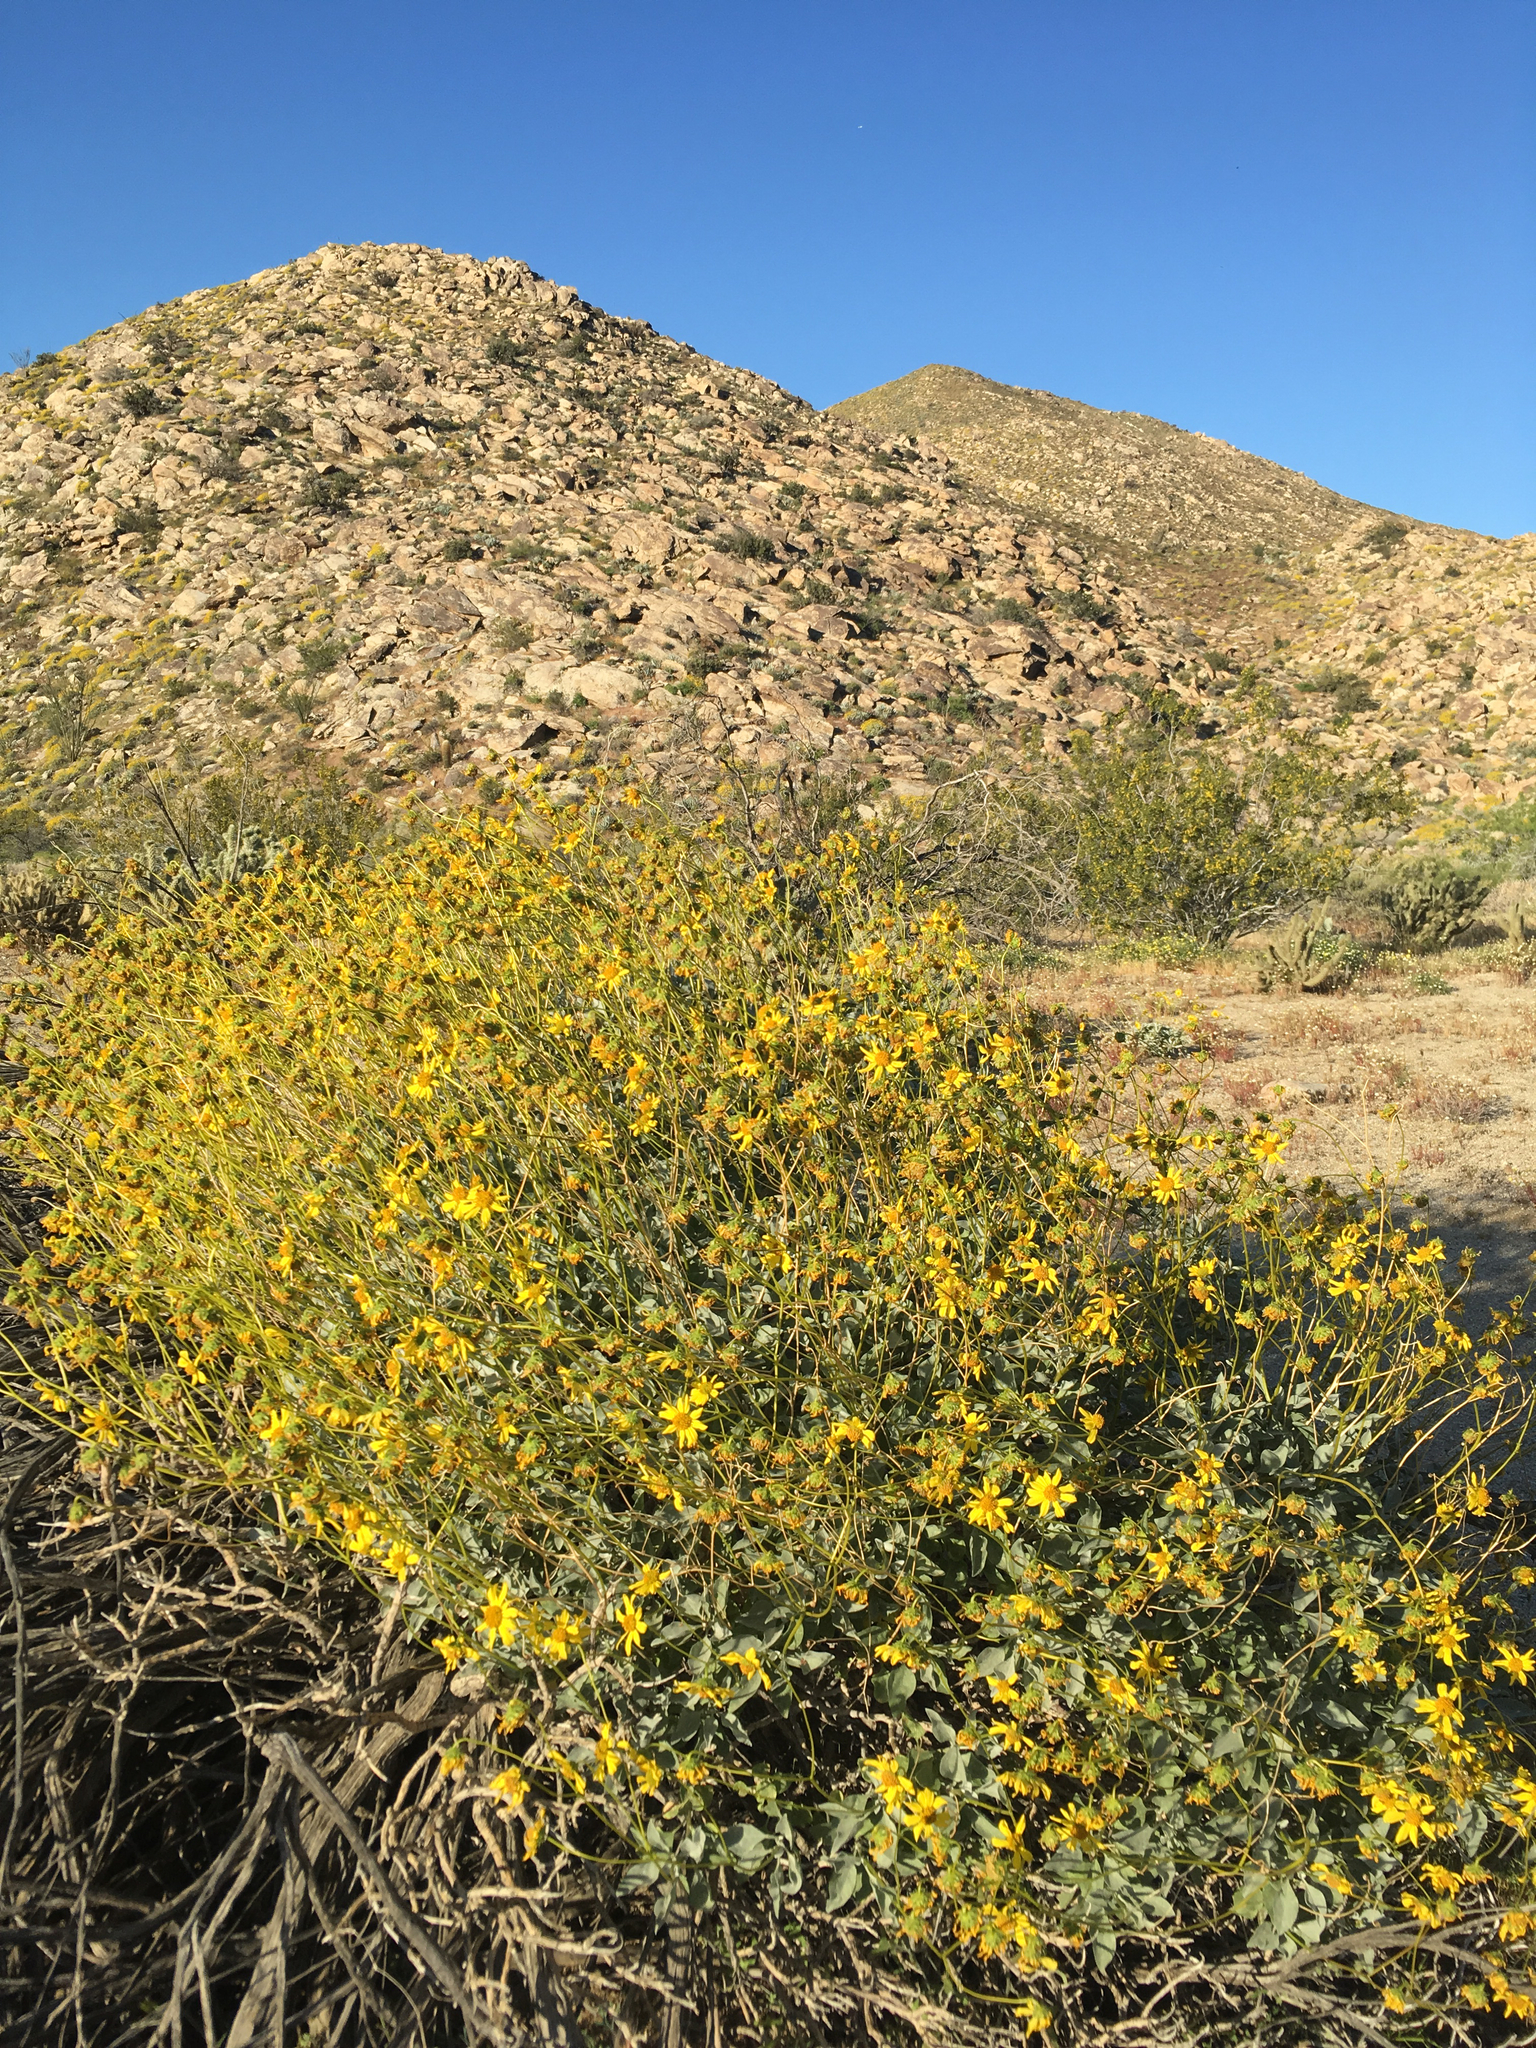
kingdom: Plantae
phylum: Tracheophyta
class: Magnoliopsida
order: Asterales
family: Asteraceae
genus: Encelia
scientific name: Encelia farinosa
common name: Brittlebush
